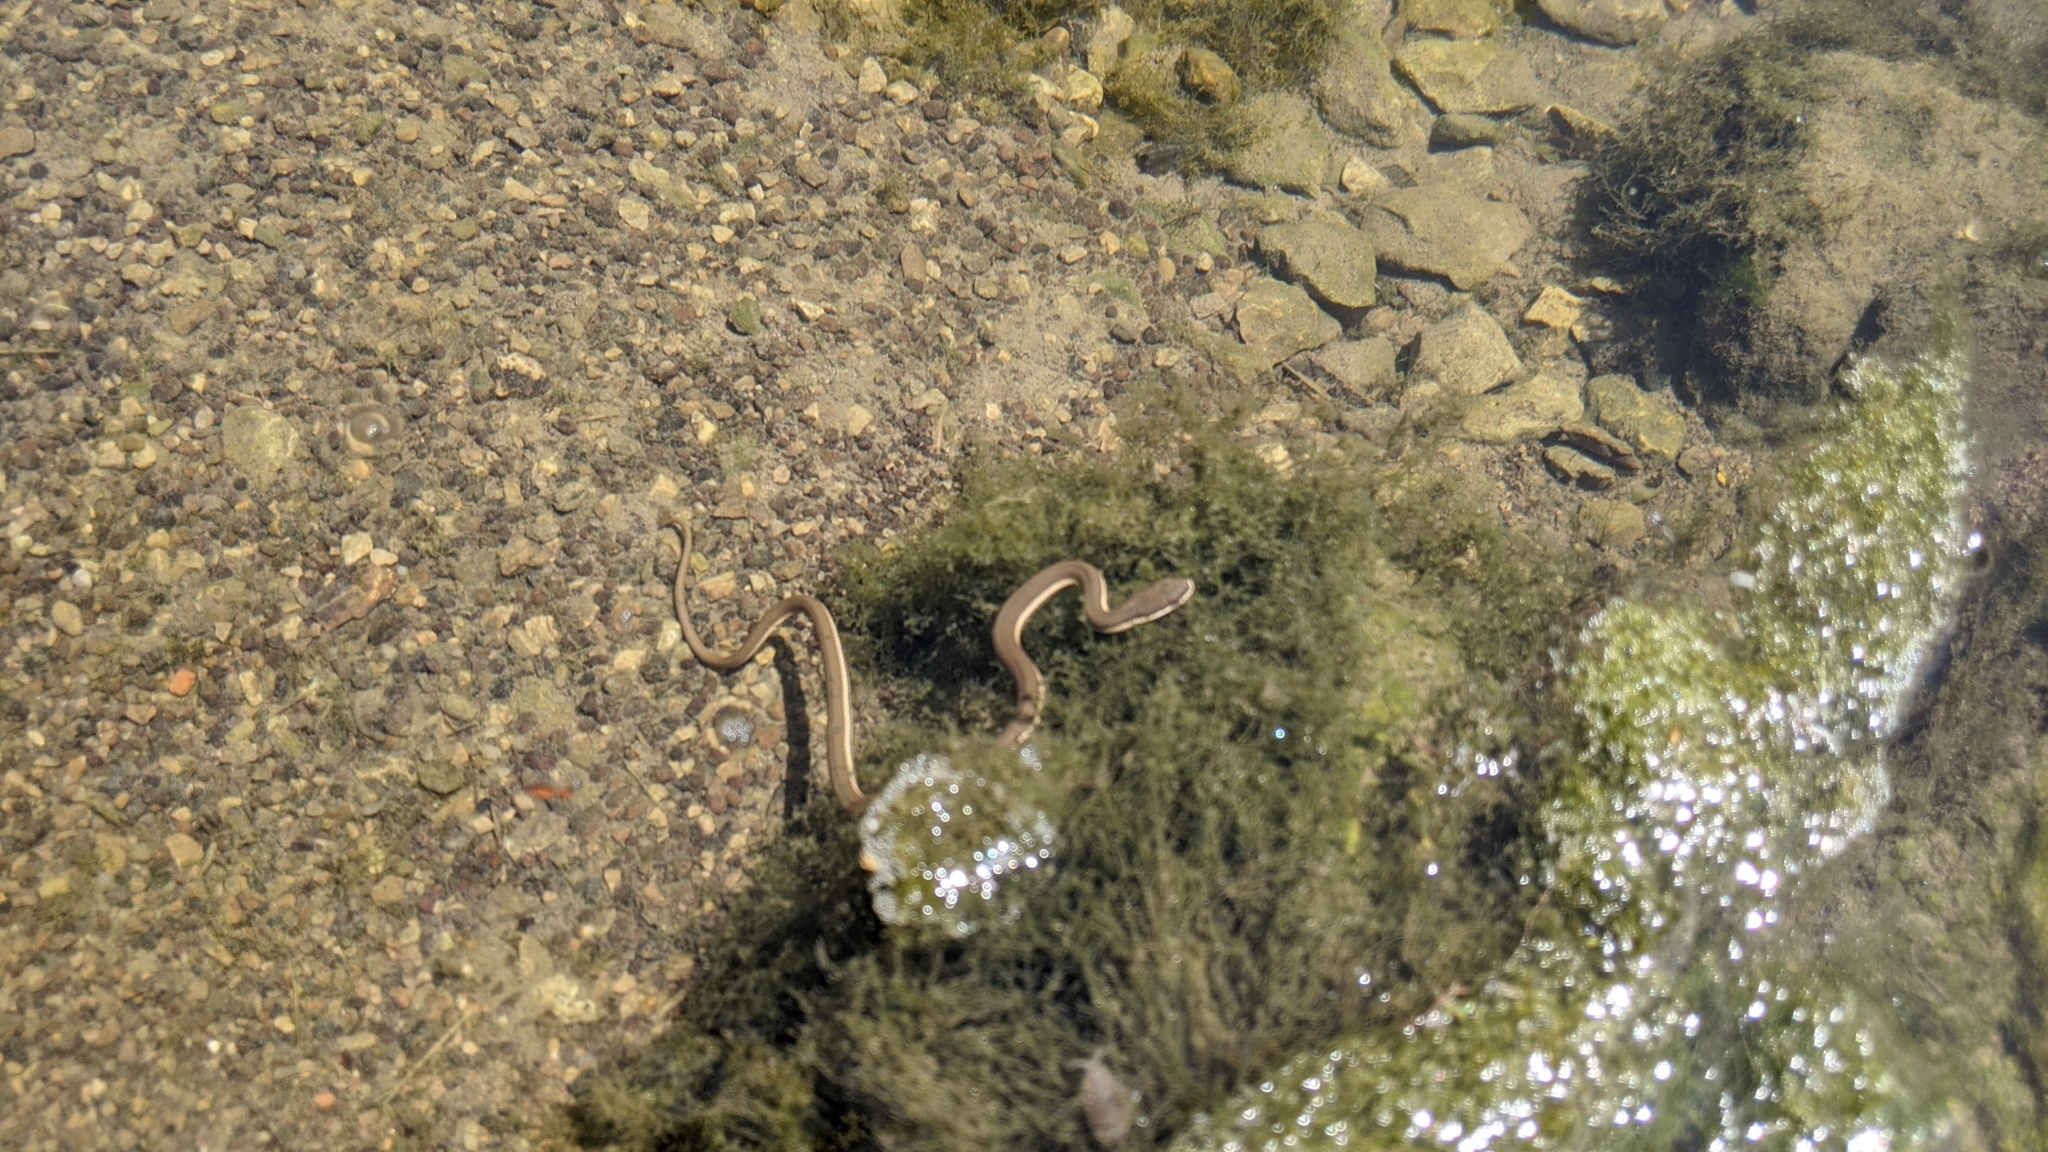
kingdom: Animalia
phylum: Chordata
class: Squamata
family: Colubridae
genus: Regina
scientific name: Regina septemvittata
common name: Queen snake
